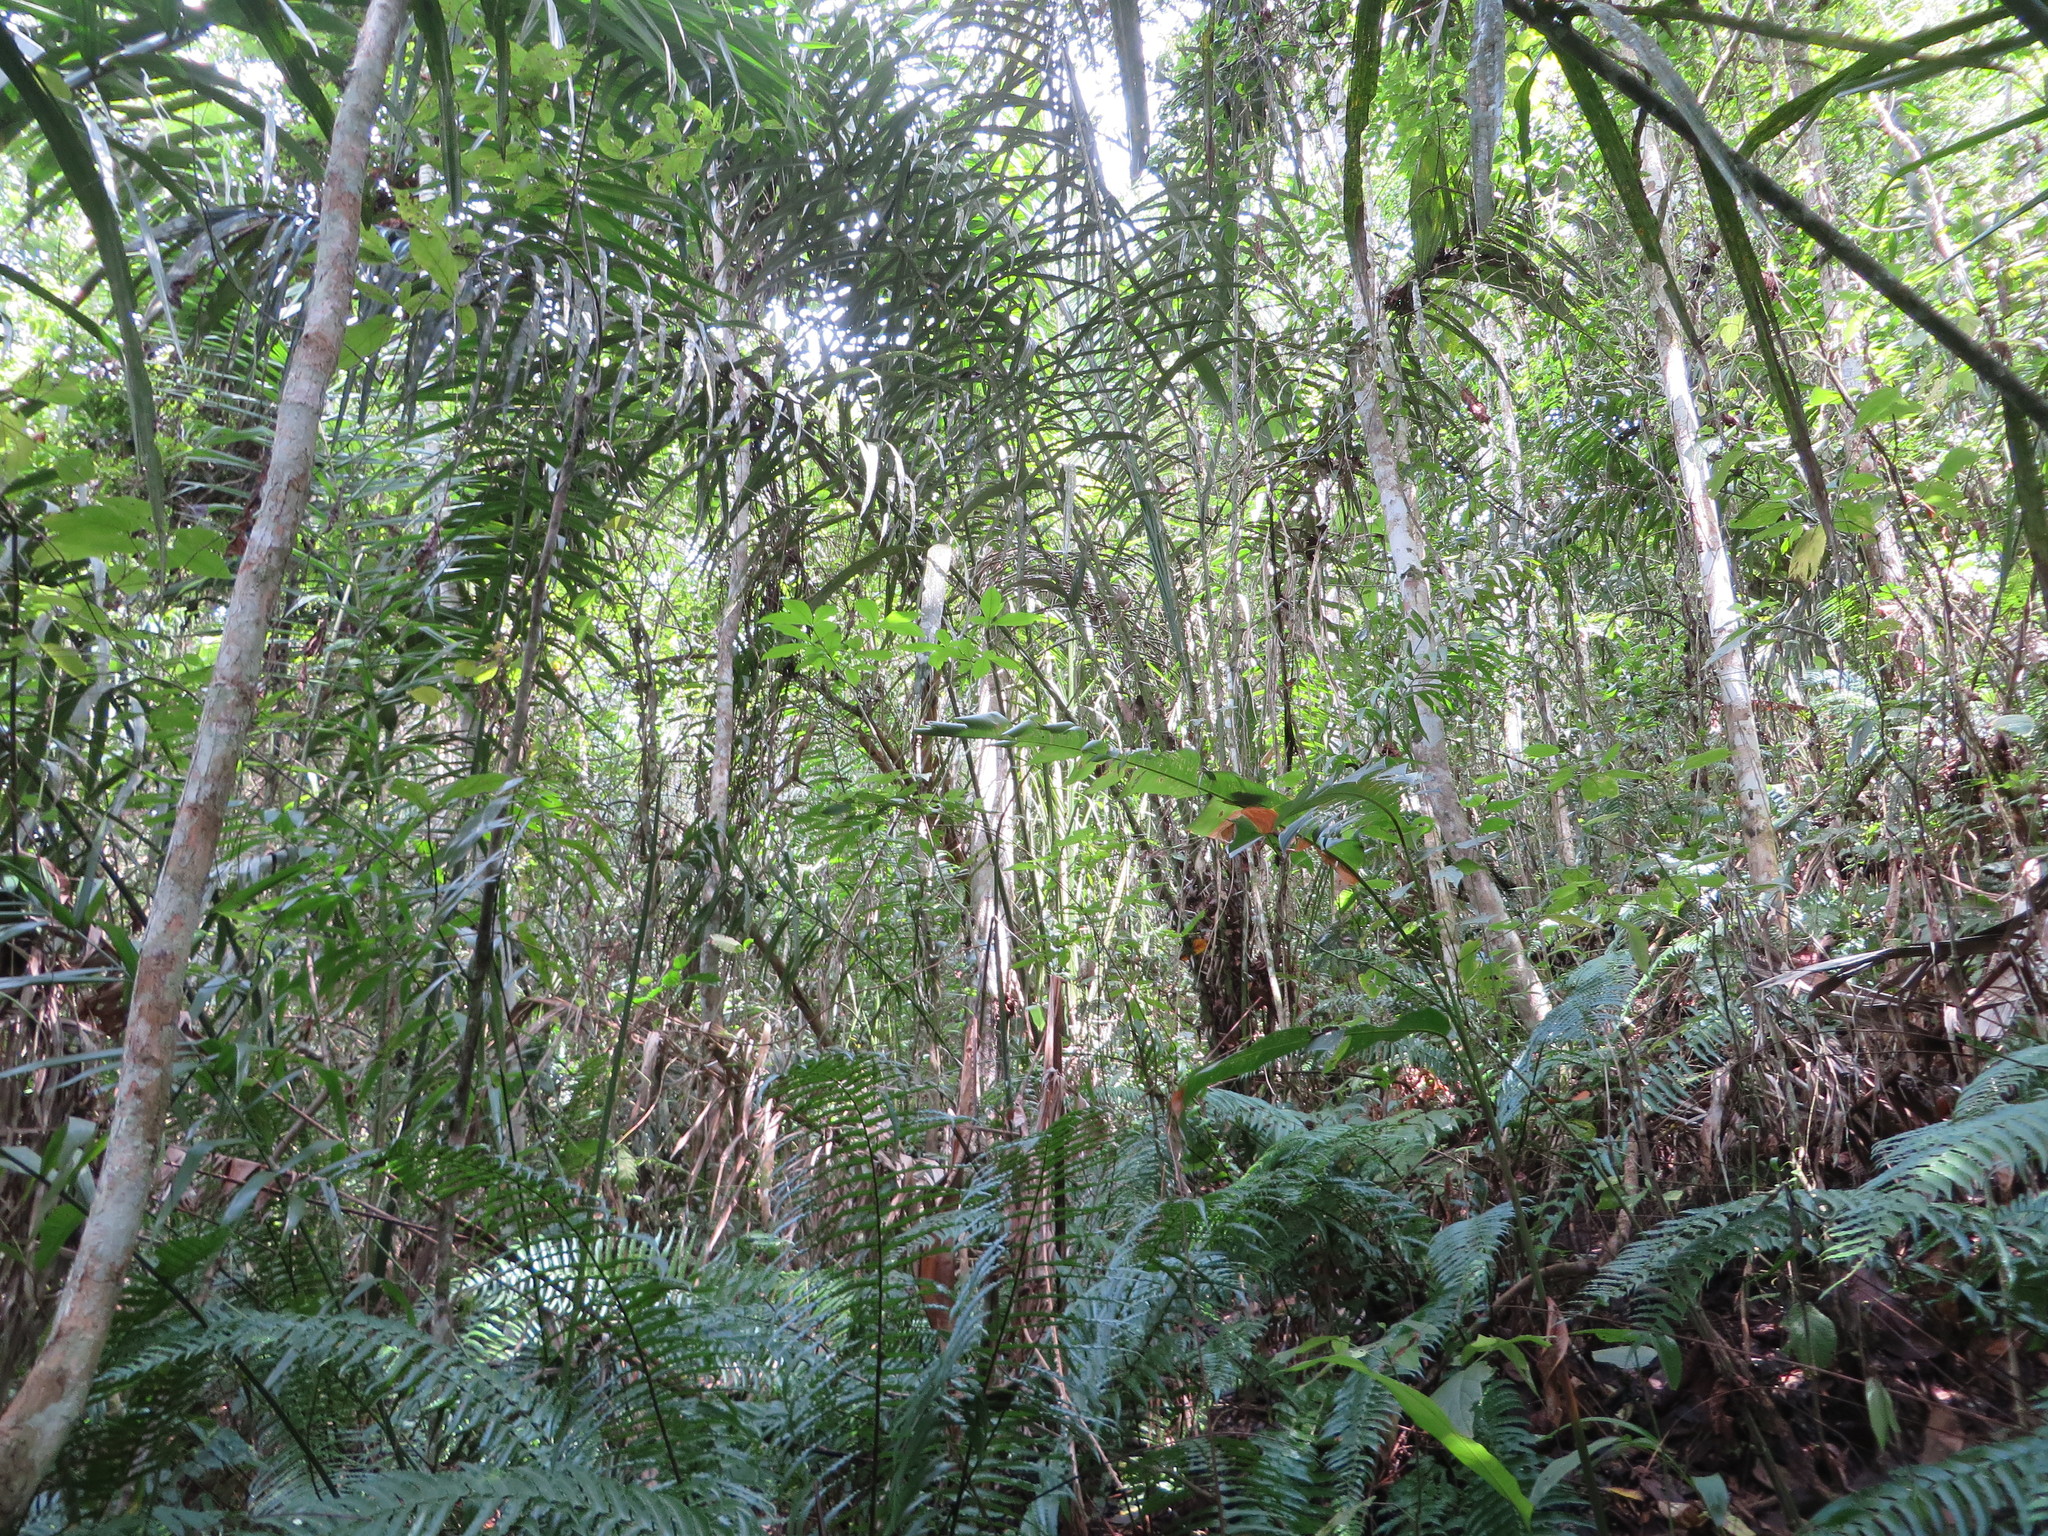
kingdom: Plantae
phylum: Tracheophyta
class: Liliopsida
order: Arecales
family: Arecaceae
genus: Astrocaryum
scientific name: Astrocaryum standleyanum
